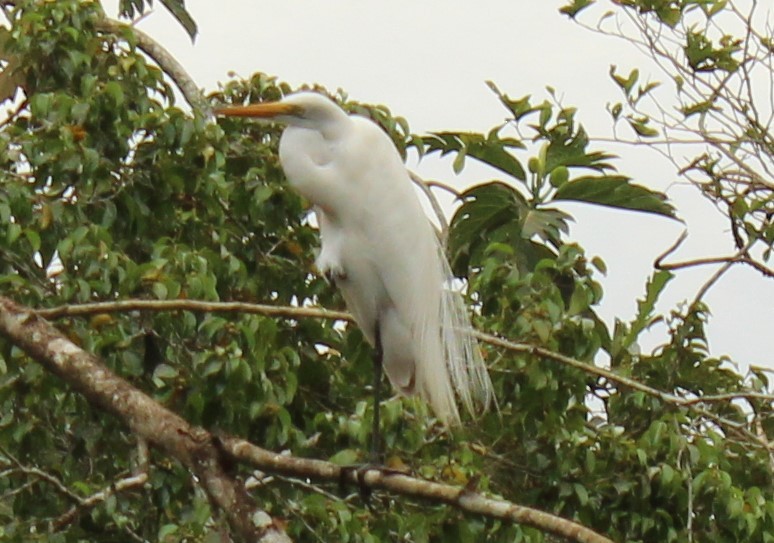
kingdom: Animalia
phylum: Chordata
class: Aves
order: Pelecaniformes
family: Ardeidae
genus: Ardea
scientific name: Ardea alba
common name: Great egret
